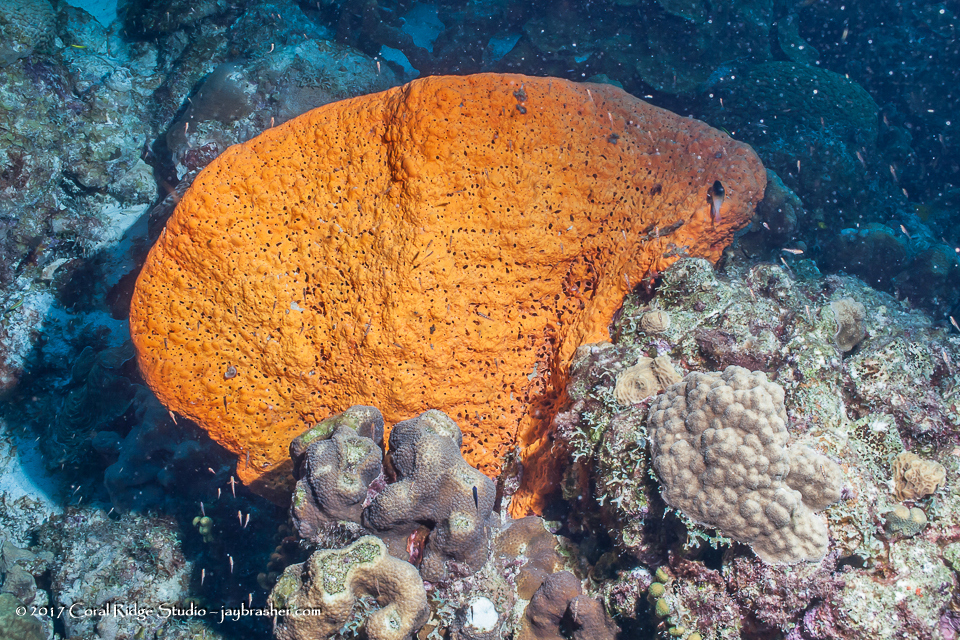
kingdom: Animalia
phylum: Porifera
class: Demospongiae
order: Agelasida
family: Agelasidae
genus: Agelas
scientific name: Agelas clathrodes
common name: Orange elephant ear sponge
